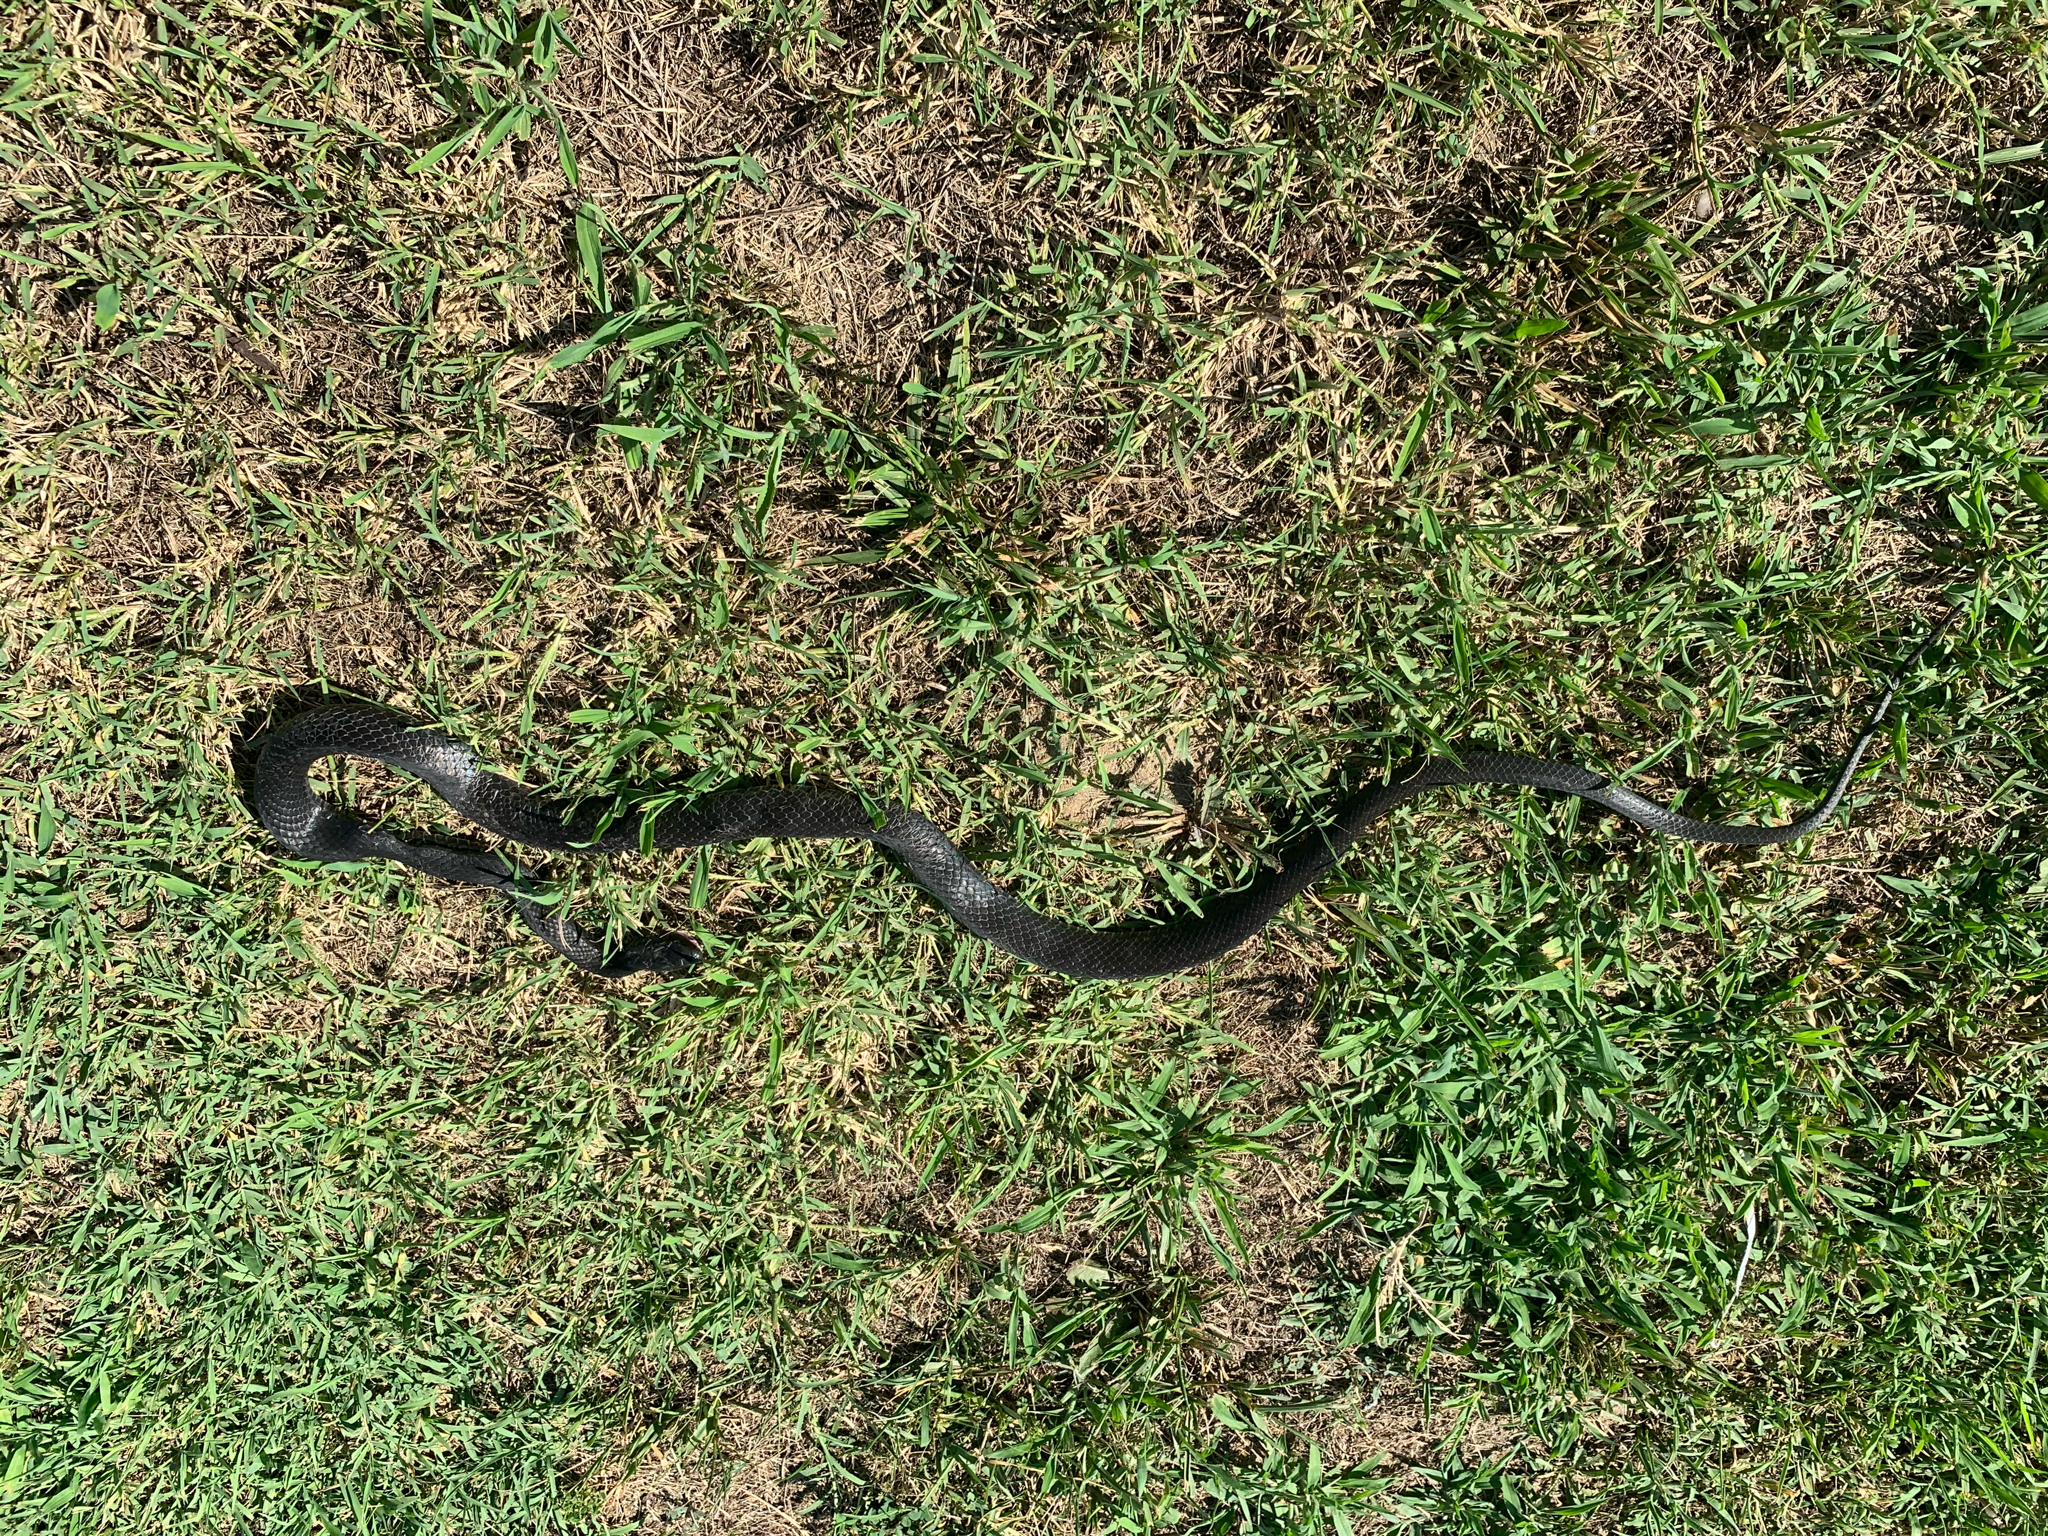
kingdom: Animalia
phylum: Chordata
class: Squamata
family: Colubridae
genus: Coluber
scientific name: Coluber constrictor
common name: Eastern racer
